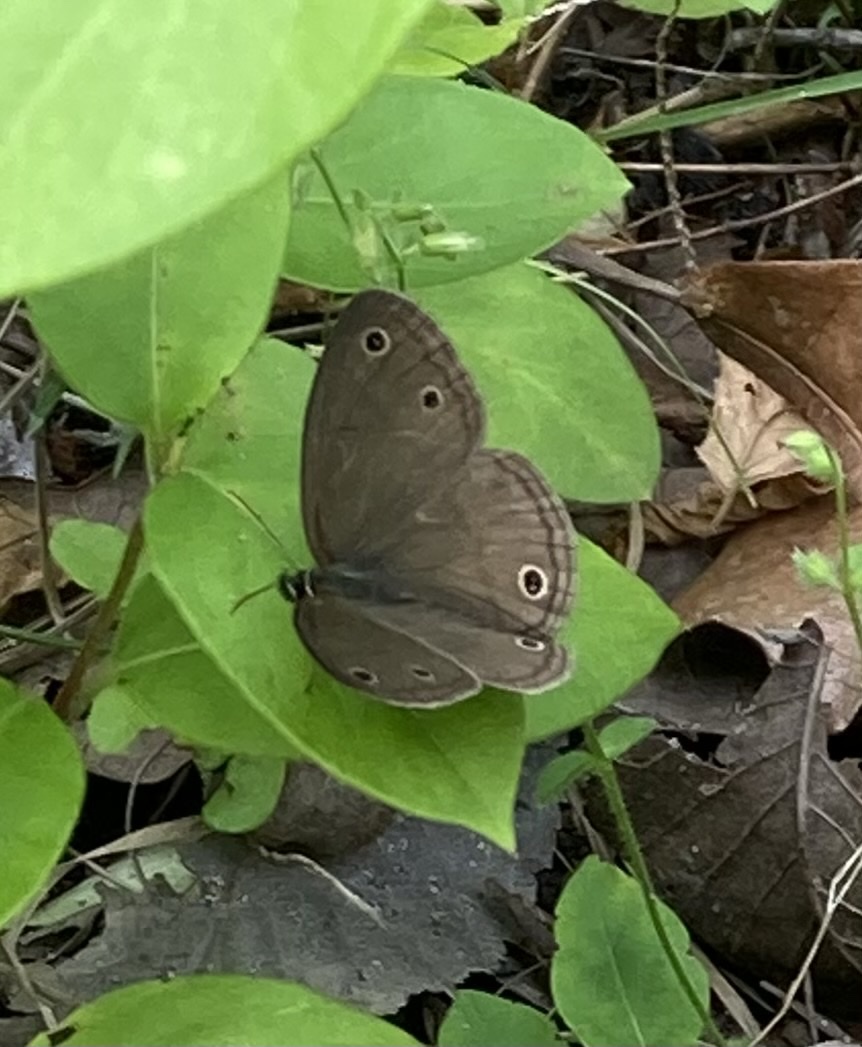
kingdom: Animalia
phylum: Arthropoda
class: Insecta
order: Lepidoptera
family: Nymphalidae
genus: Euptychia
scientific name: Euptychia cymela
